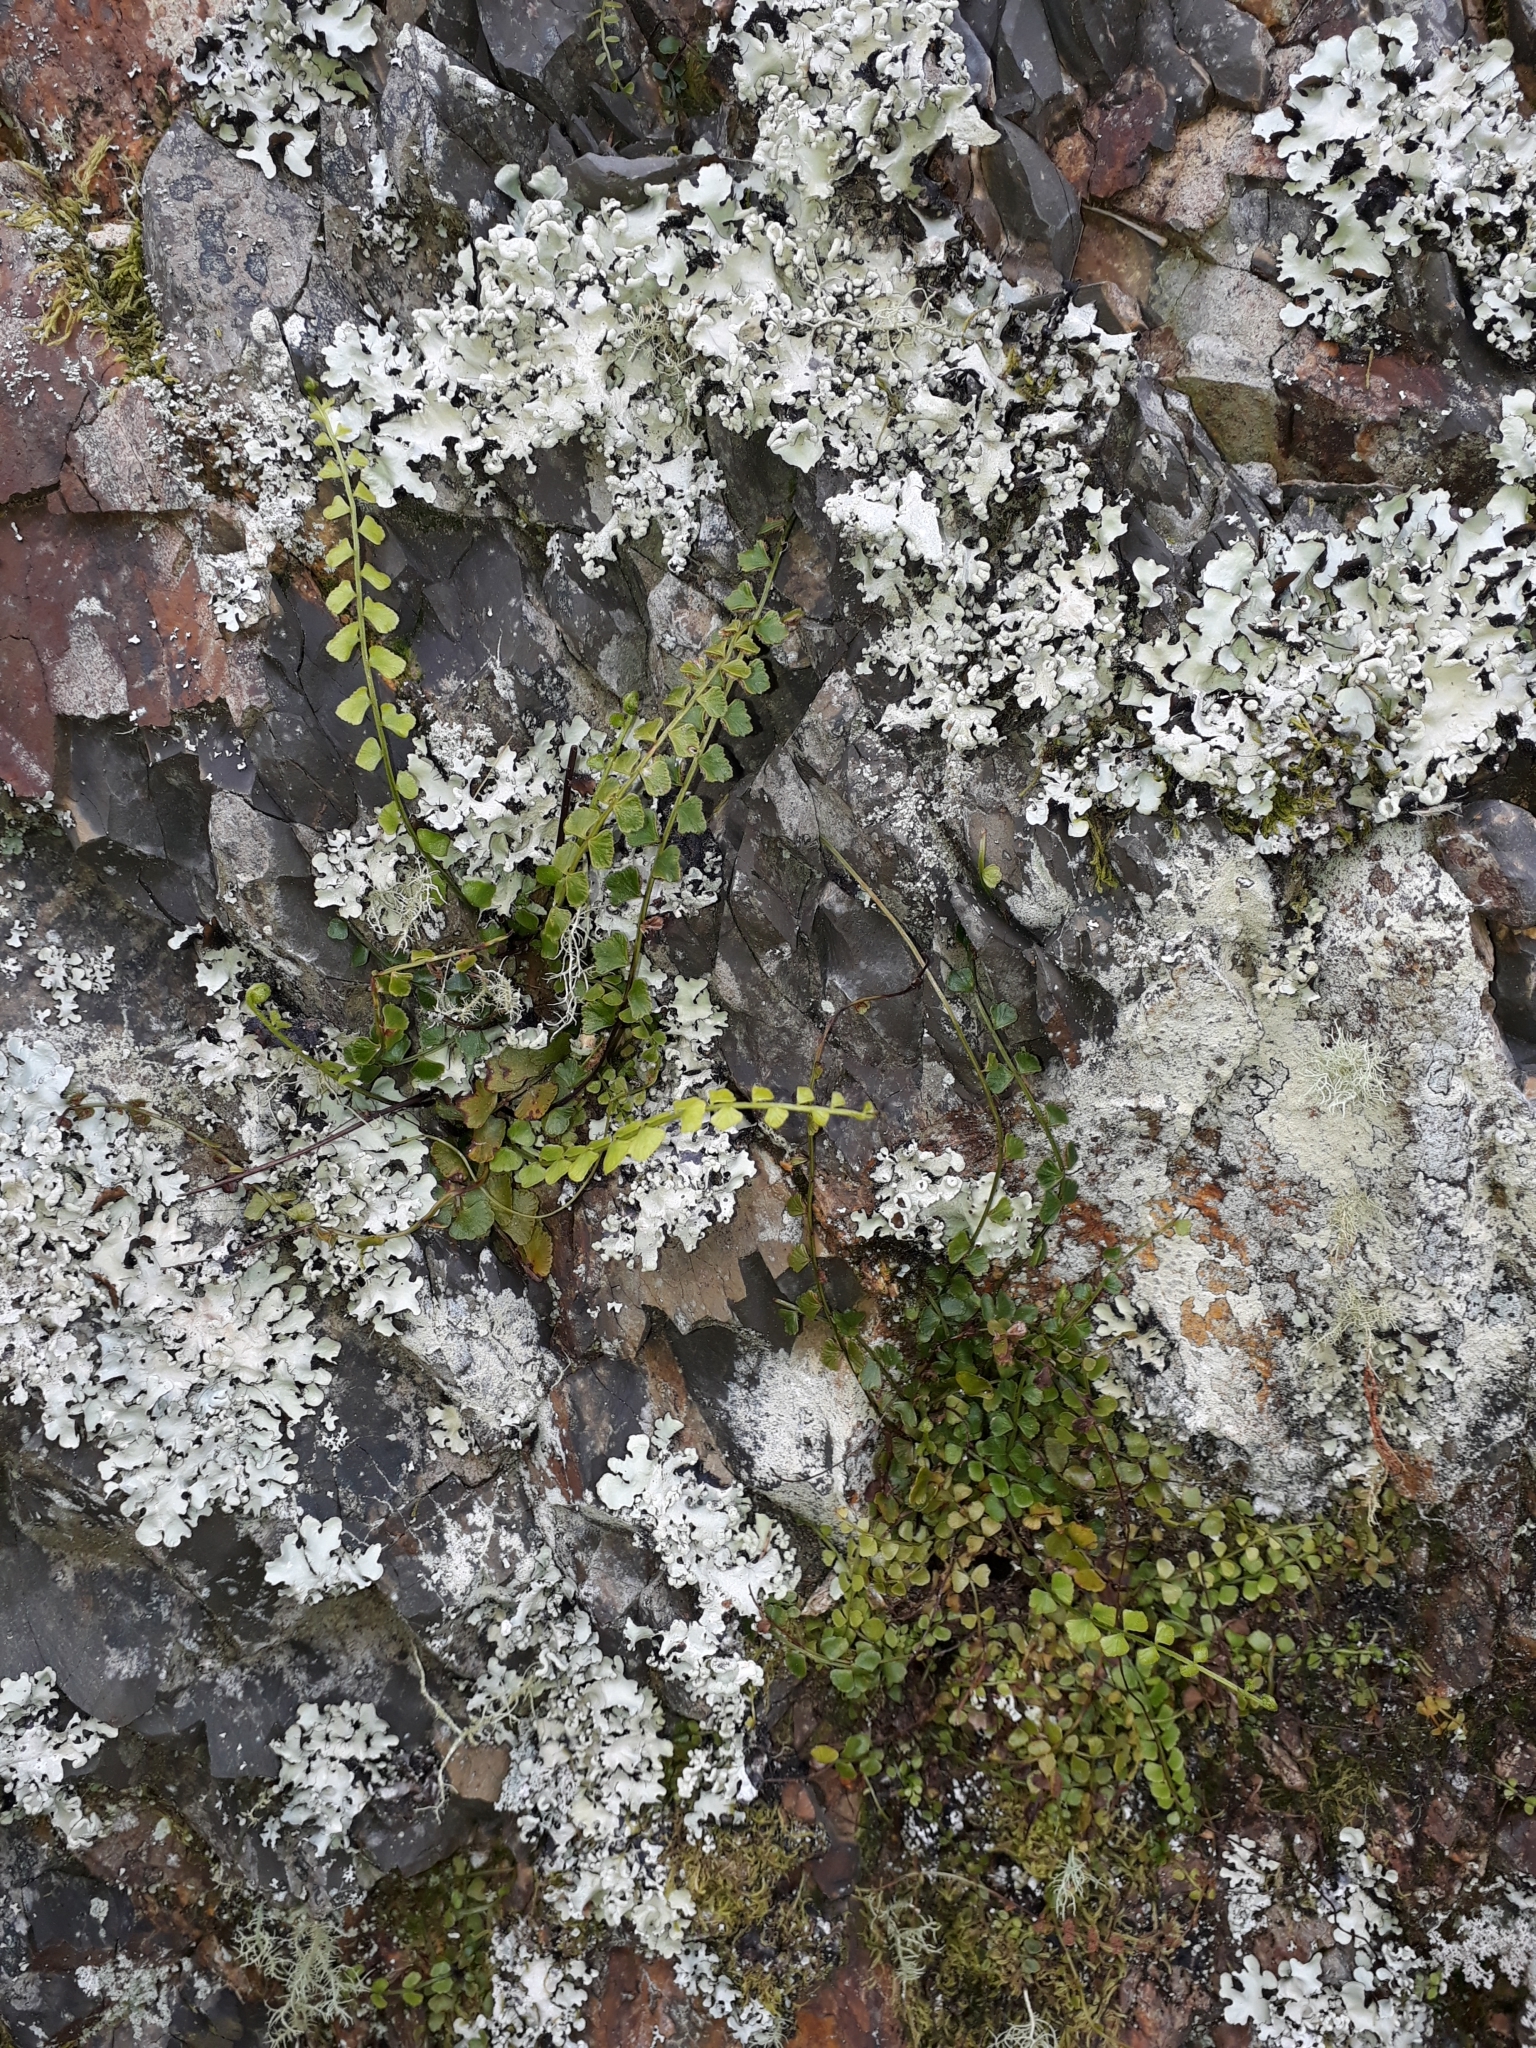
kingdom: Plantae
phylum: Tracheophyta
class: Polypodiopsida
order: Polypodiales
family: Aspleniaceae
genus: Asplenium
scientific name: Asplenium flabellifolium
